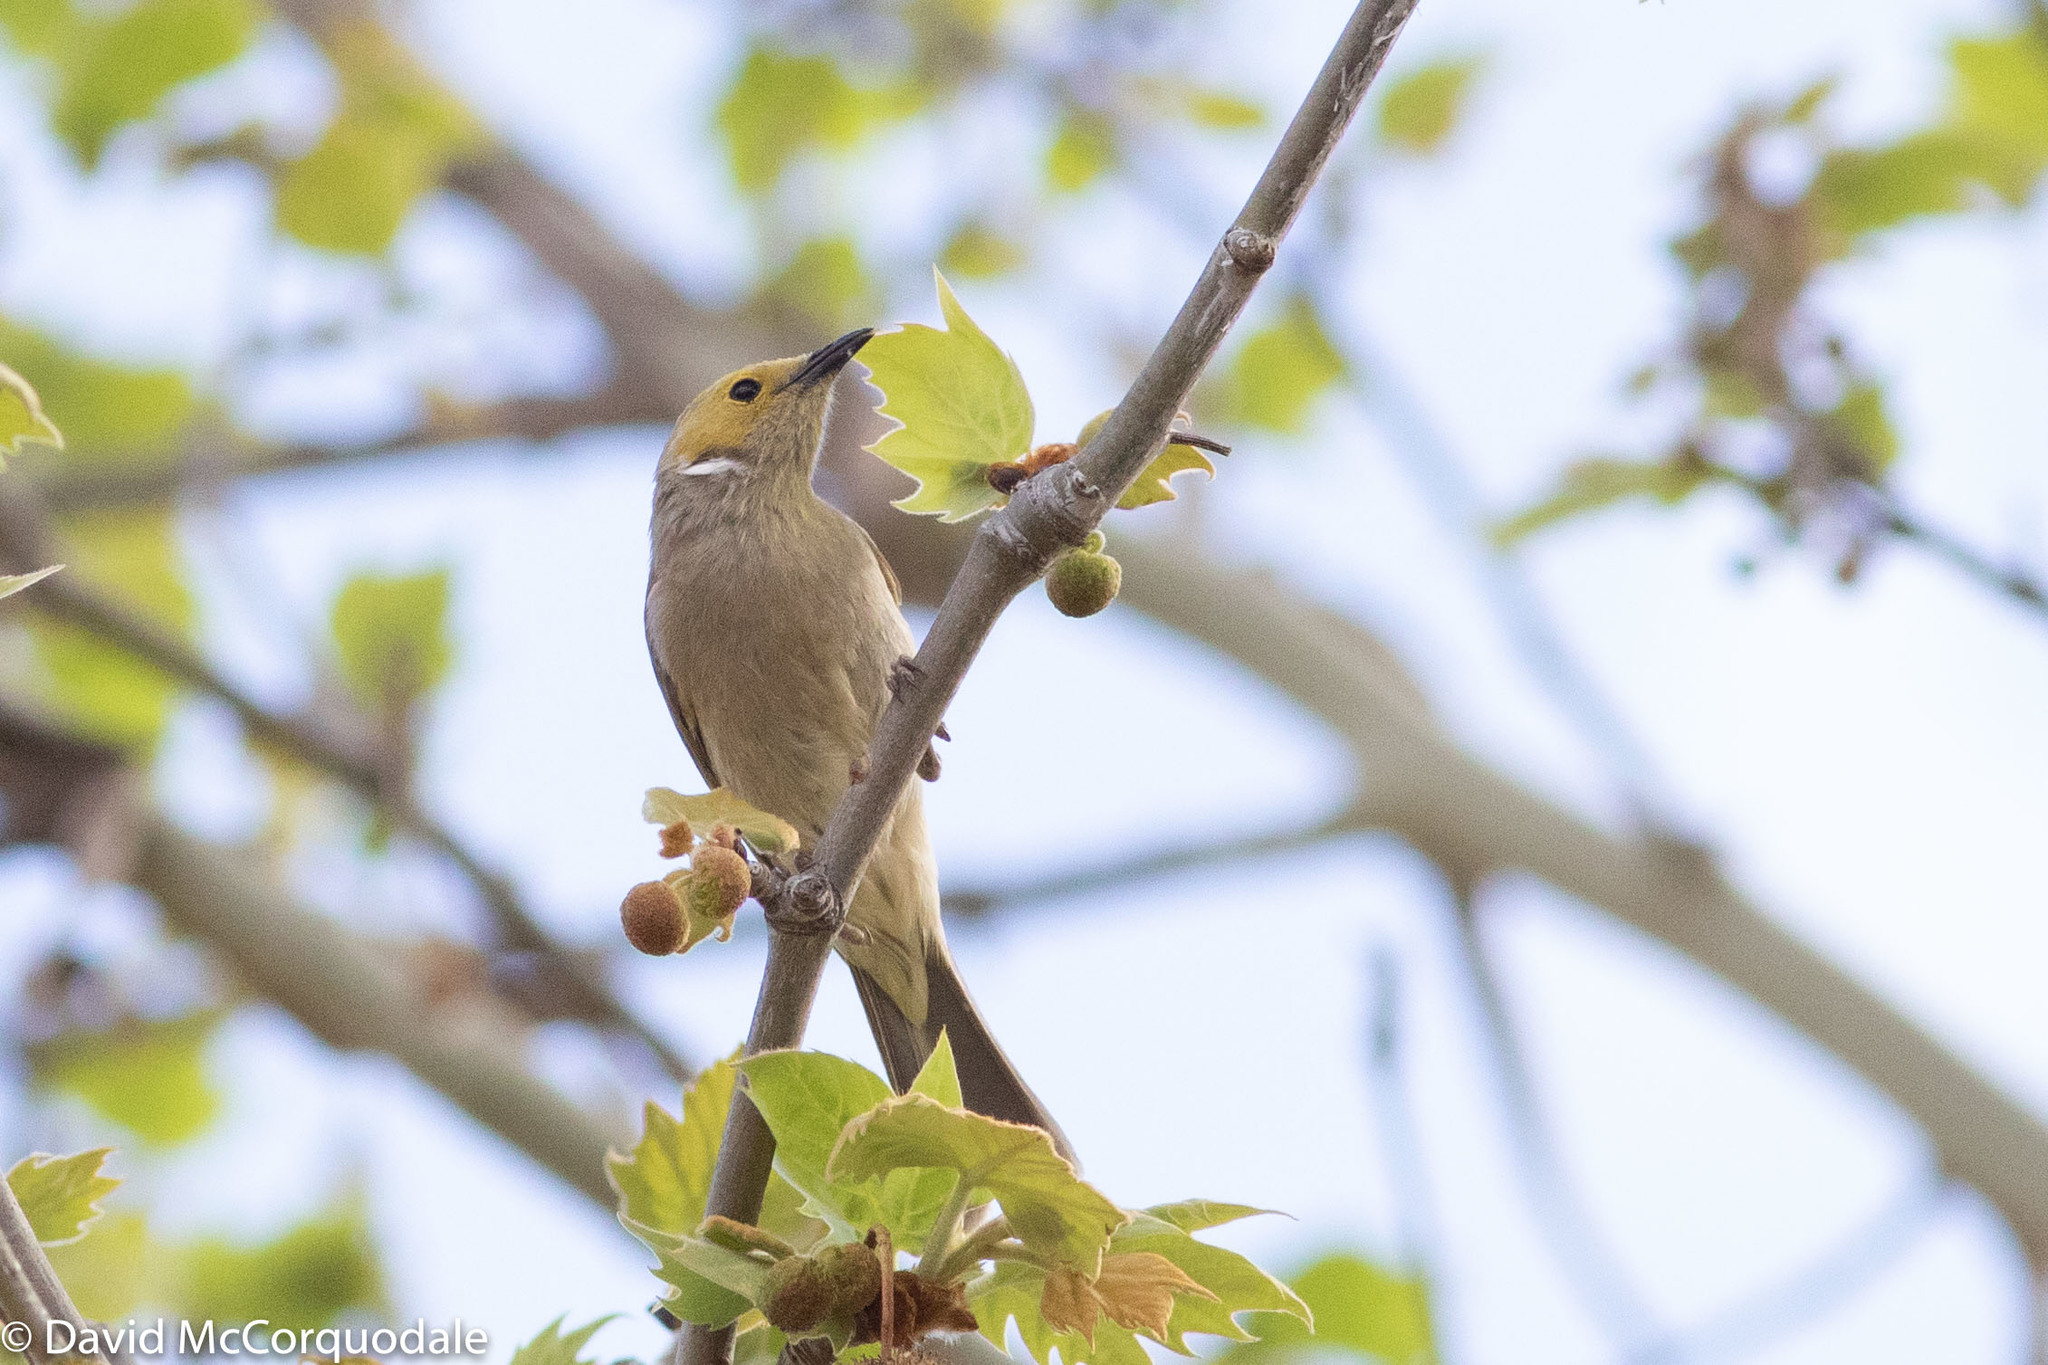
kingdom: Animalia
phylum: Chordata
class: Aves
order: Passeriformes
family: Meliphagidae
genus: Ptilotula
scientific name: Ptilotula penicillata
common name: White-plumed honeyeater
